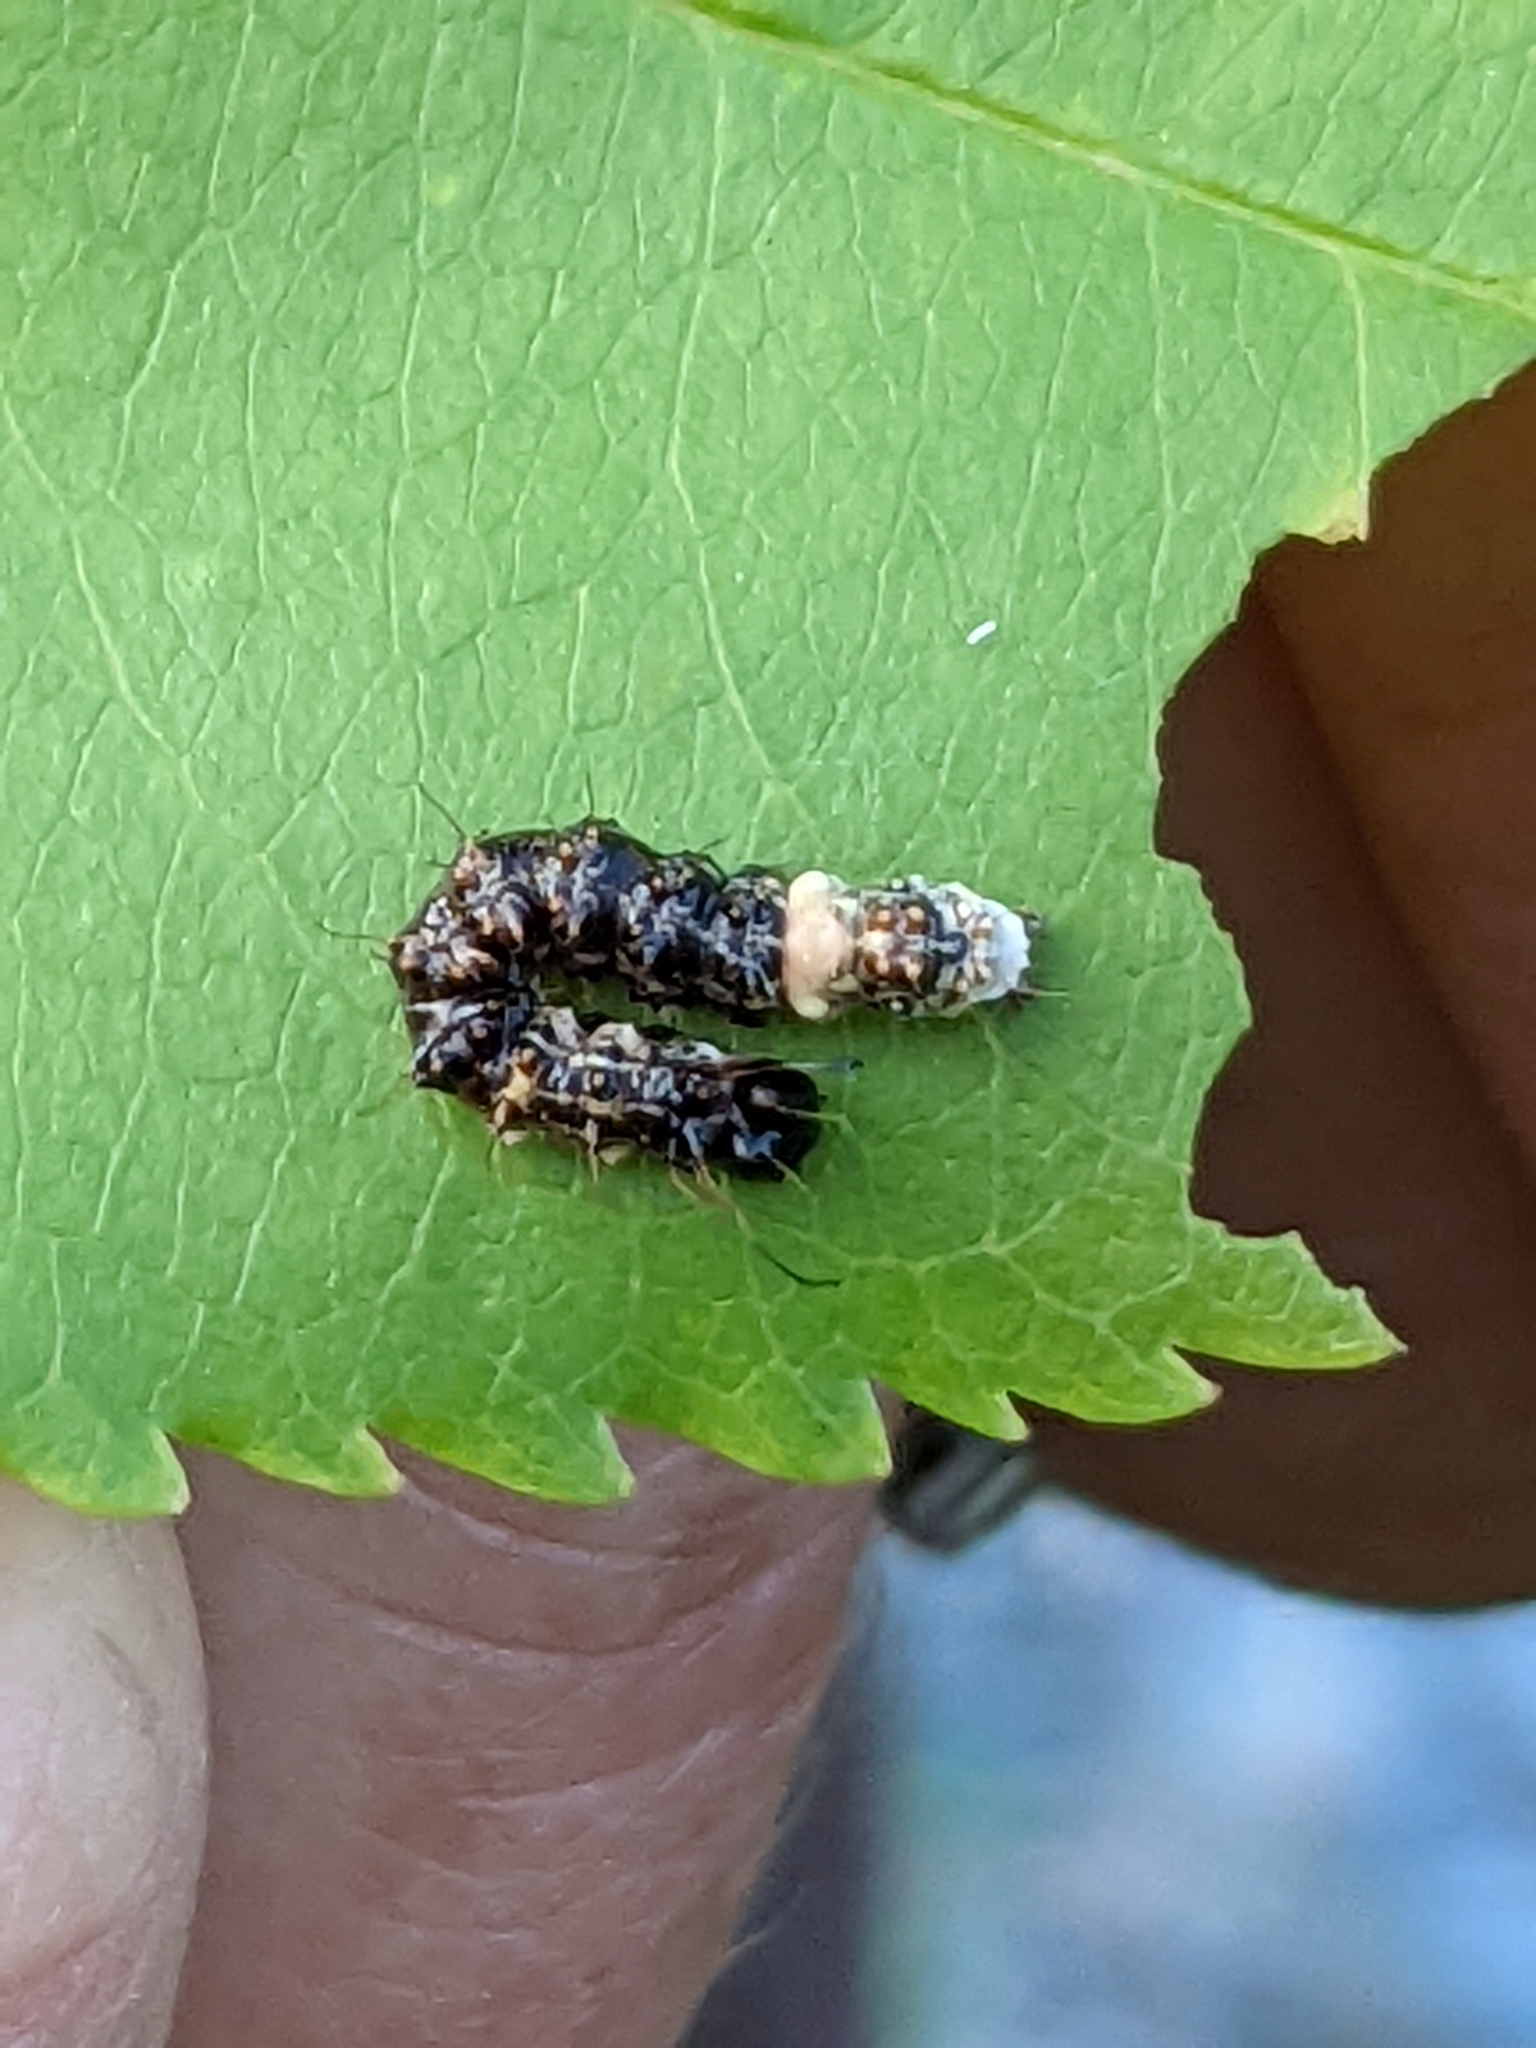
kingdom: Animalia
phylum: Arthropoda
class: Insecta
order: Lepidoptera
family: Noctuidae
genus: Acronicta
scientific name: Acronicta funeralis
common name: Funerary dagger
